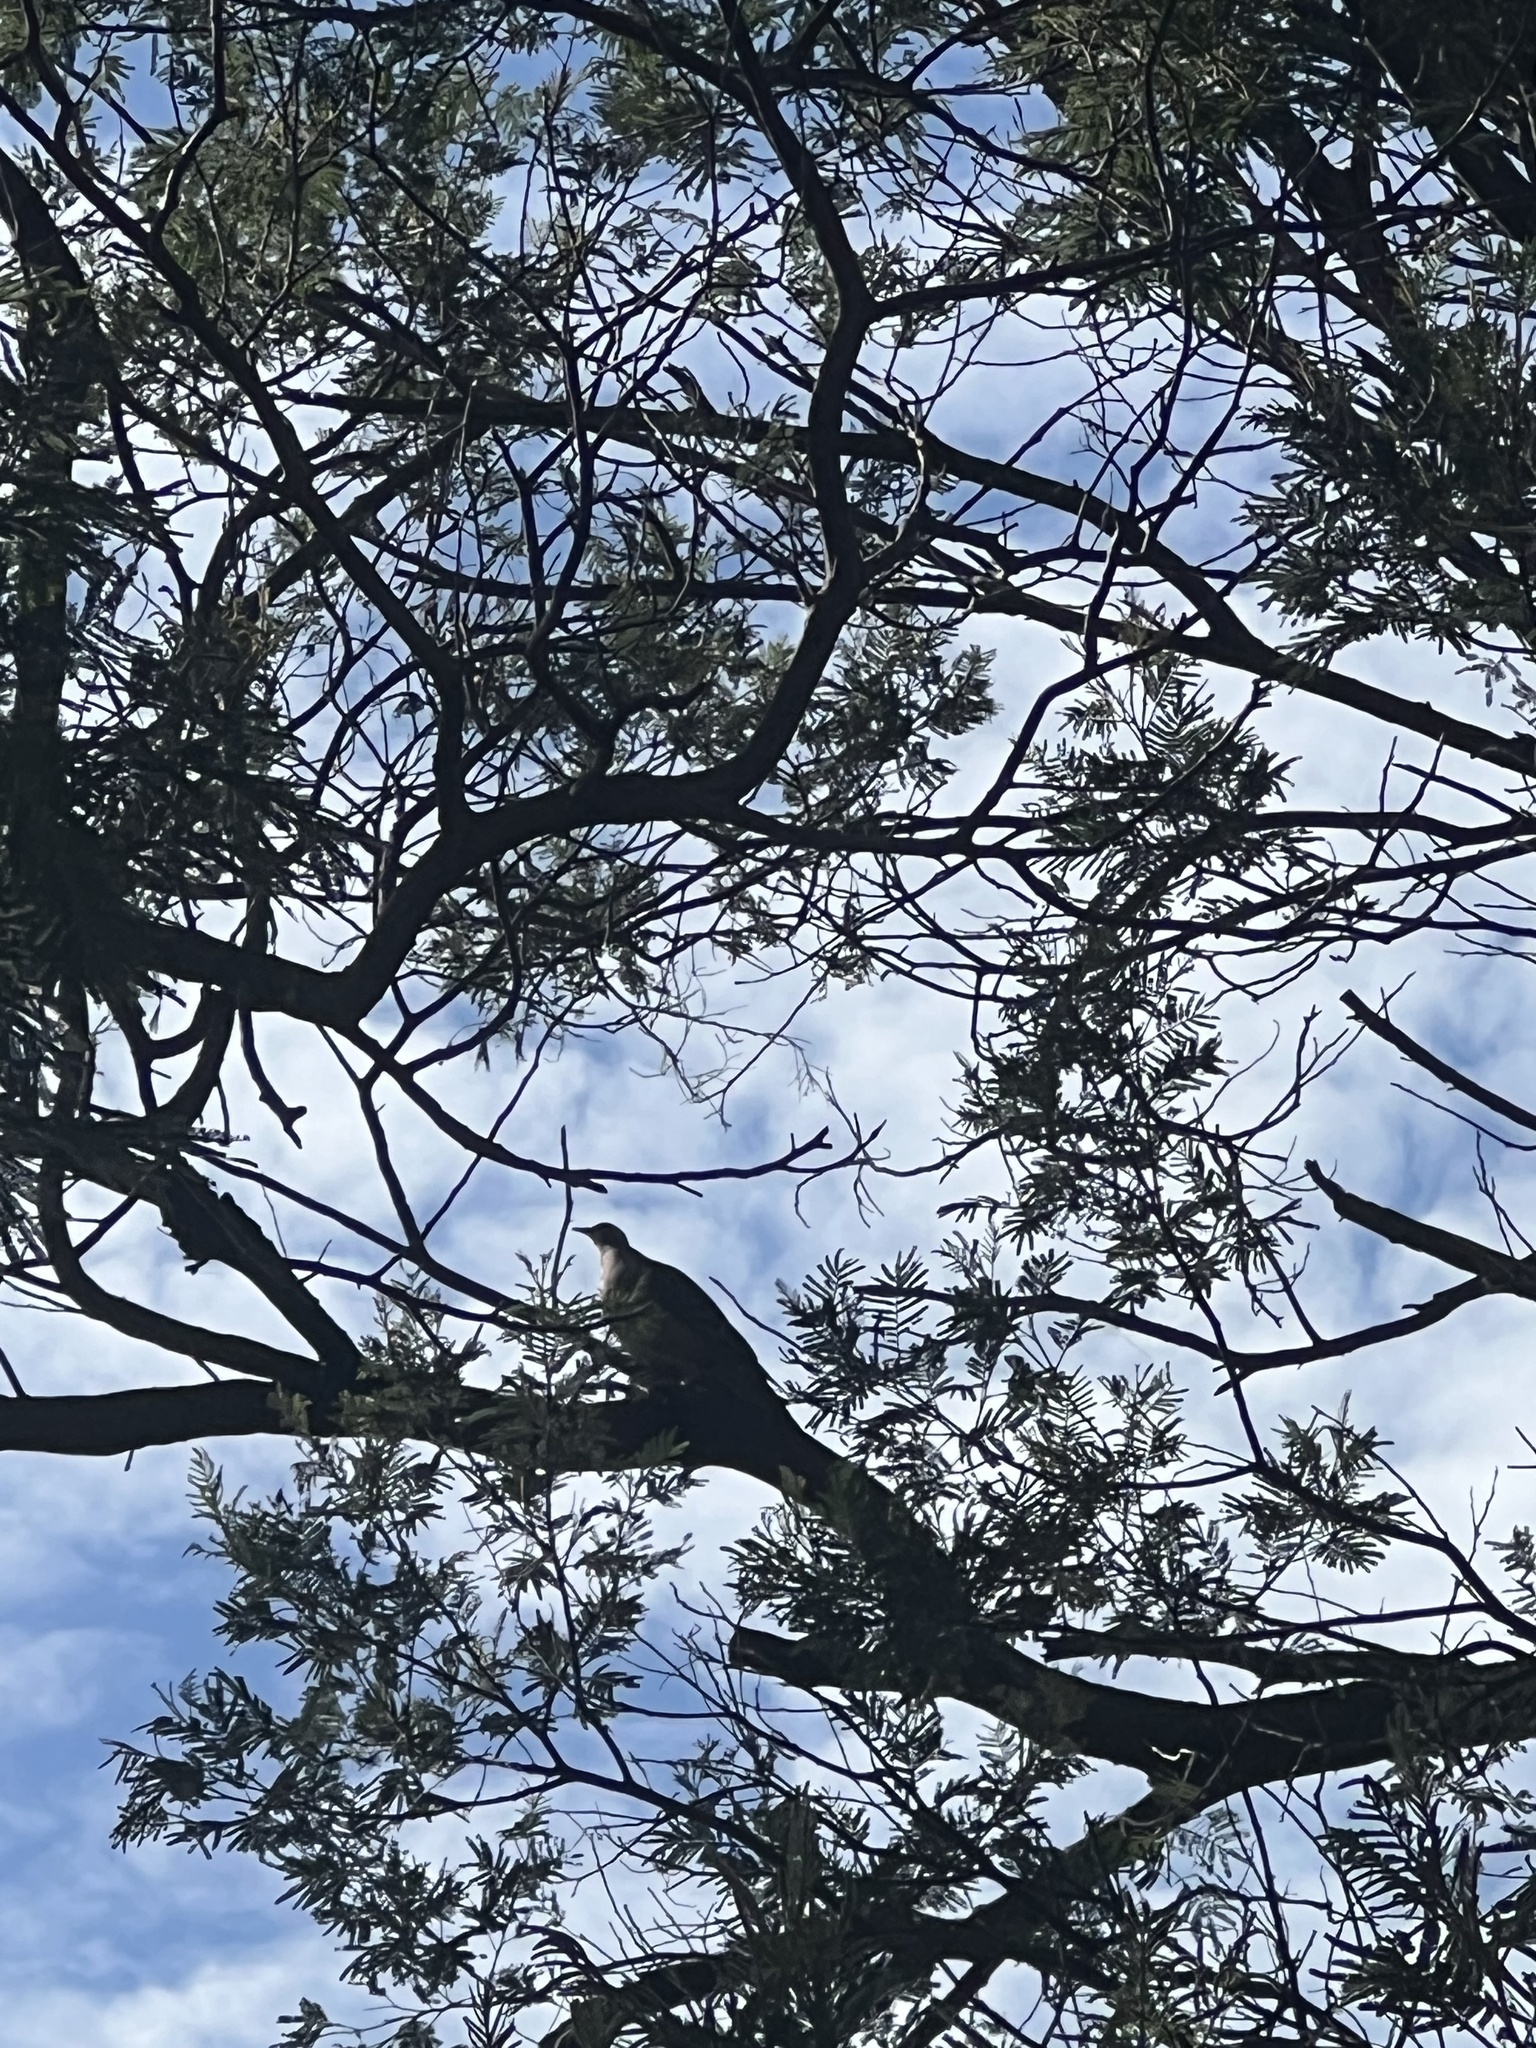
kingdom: Animalia
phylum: Chordata
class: Aves
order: Columbiformes
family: Columbidae
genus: Phaps
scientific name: Phaps chalcoptera
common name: Common bronzewing
